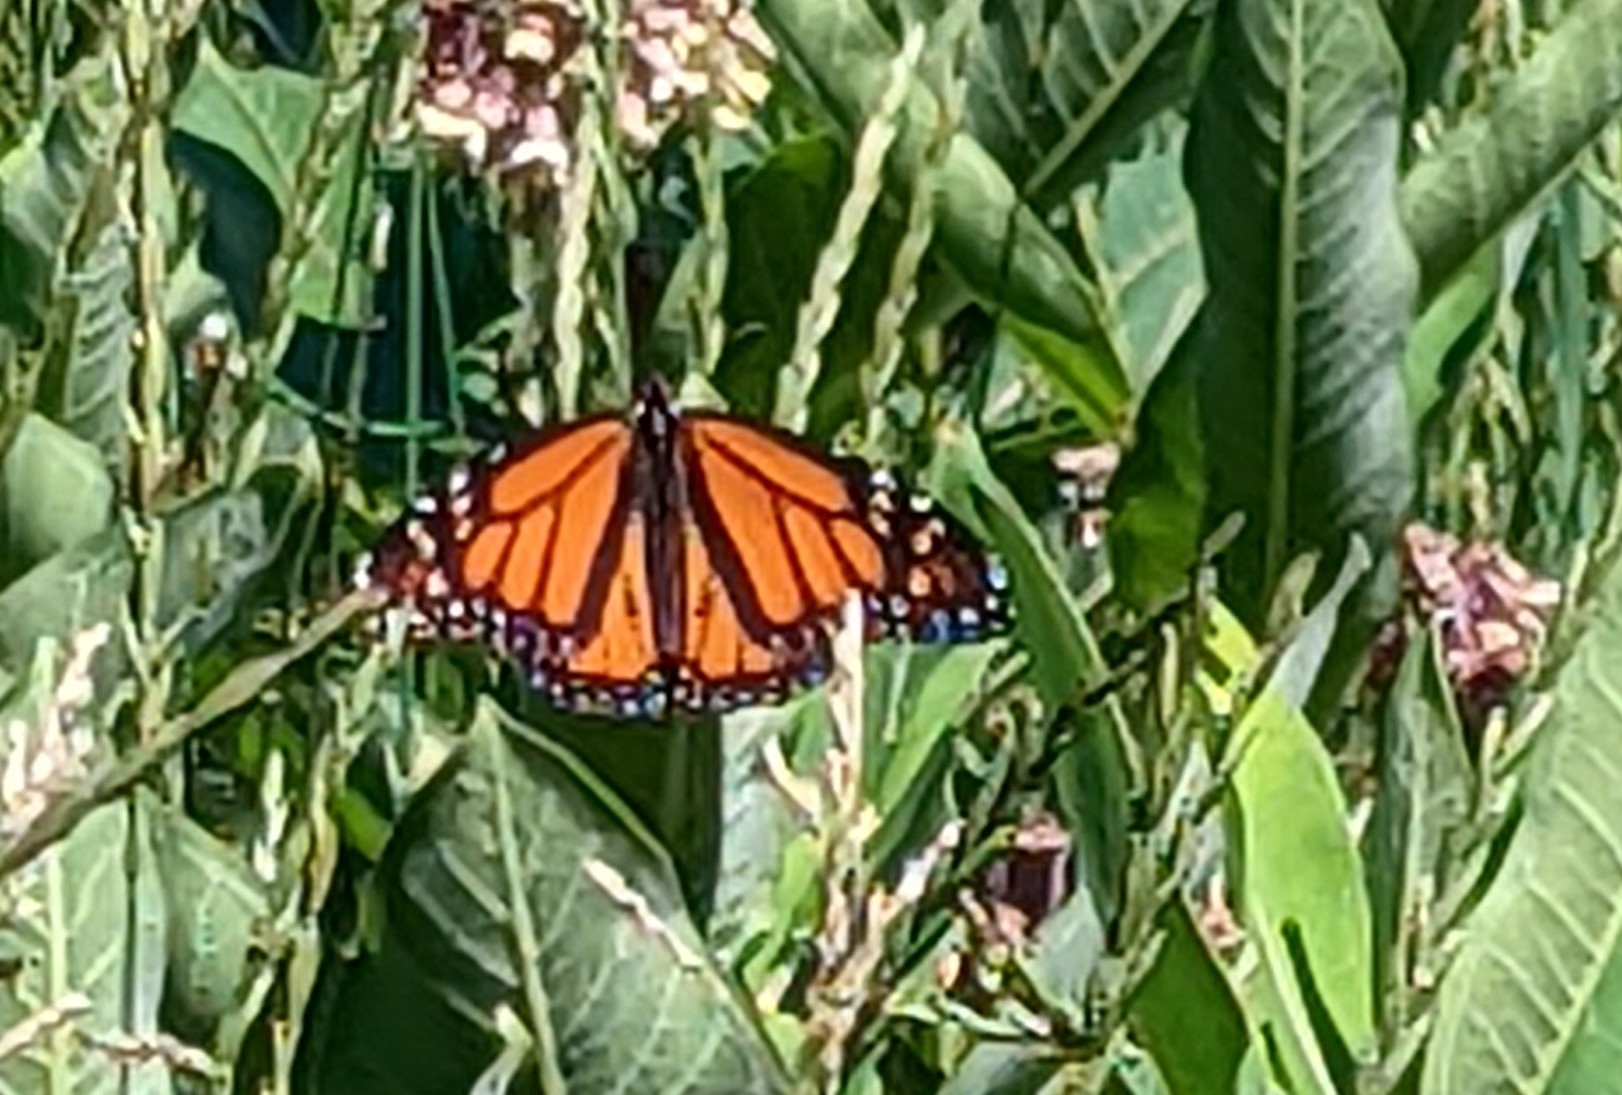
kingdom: Animalia
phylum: Arthropoda
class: Insecta
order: Lepidoptera
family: Nymphalidae
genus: Danaus
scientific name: Danaus plexippus
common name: Monarch
